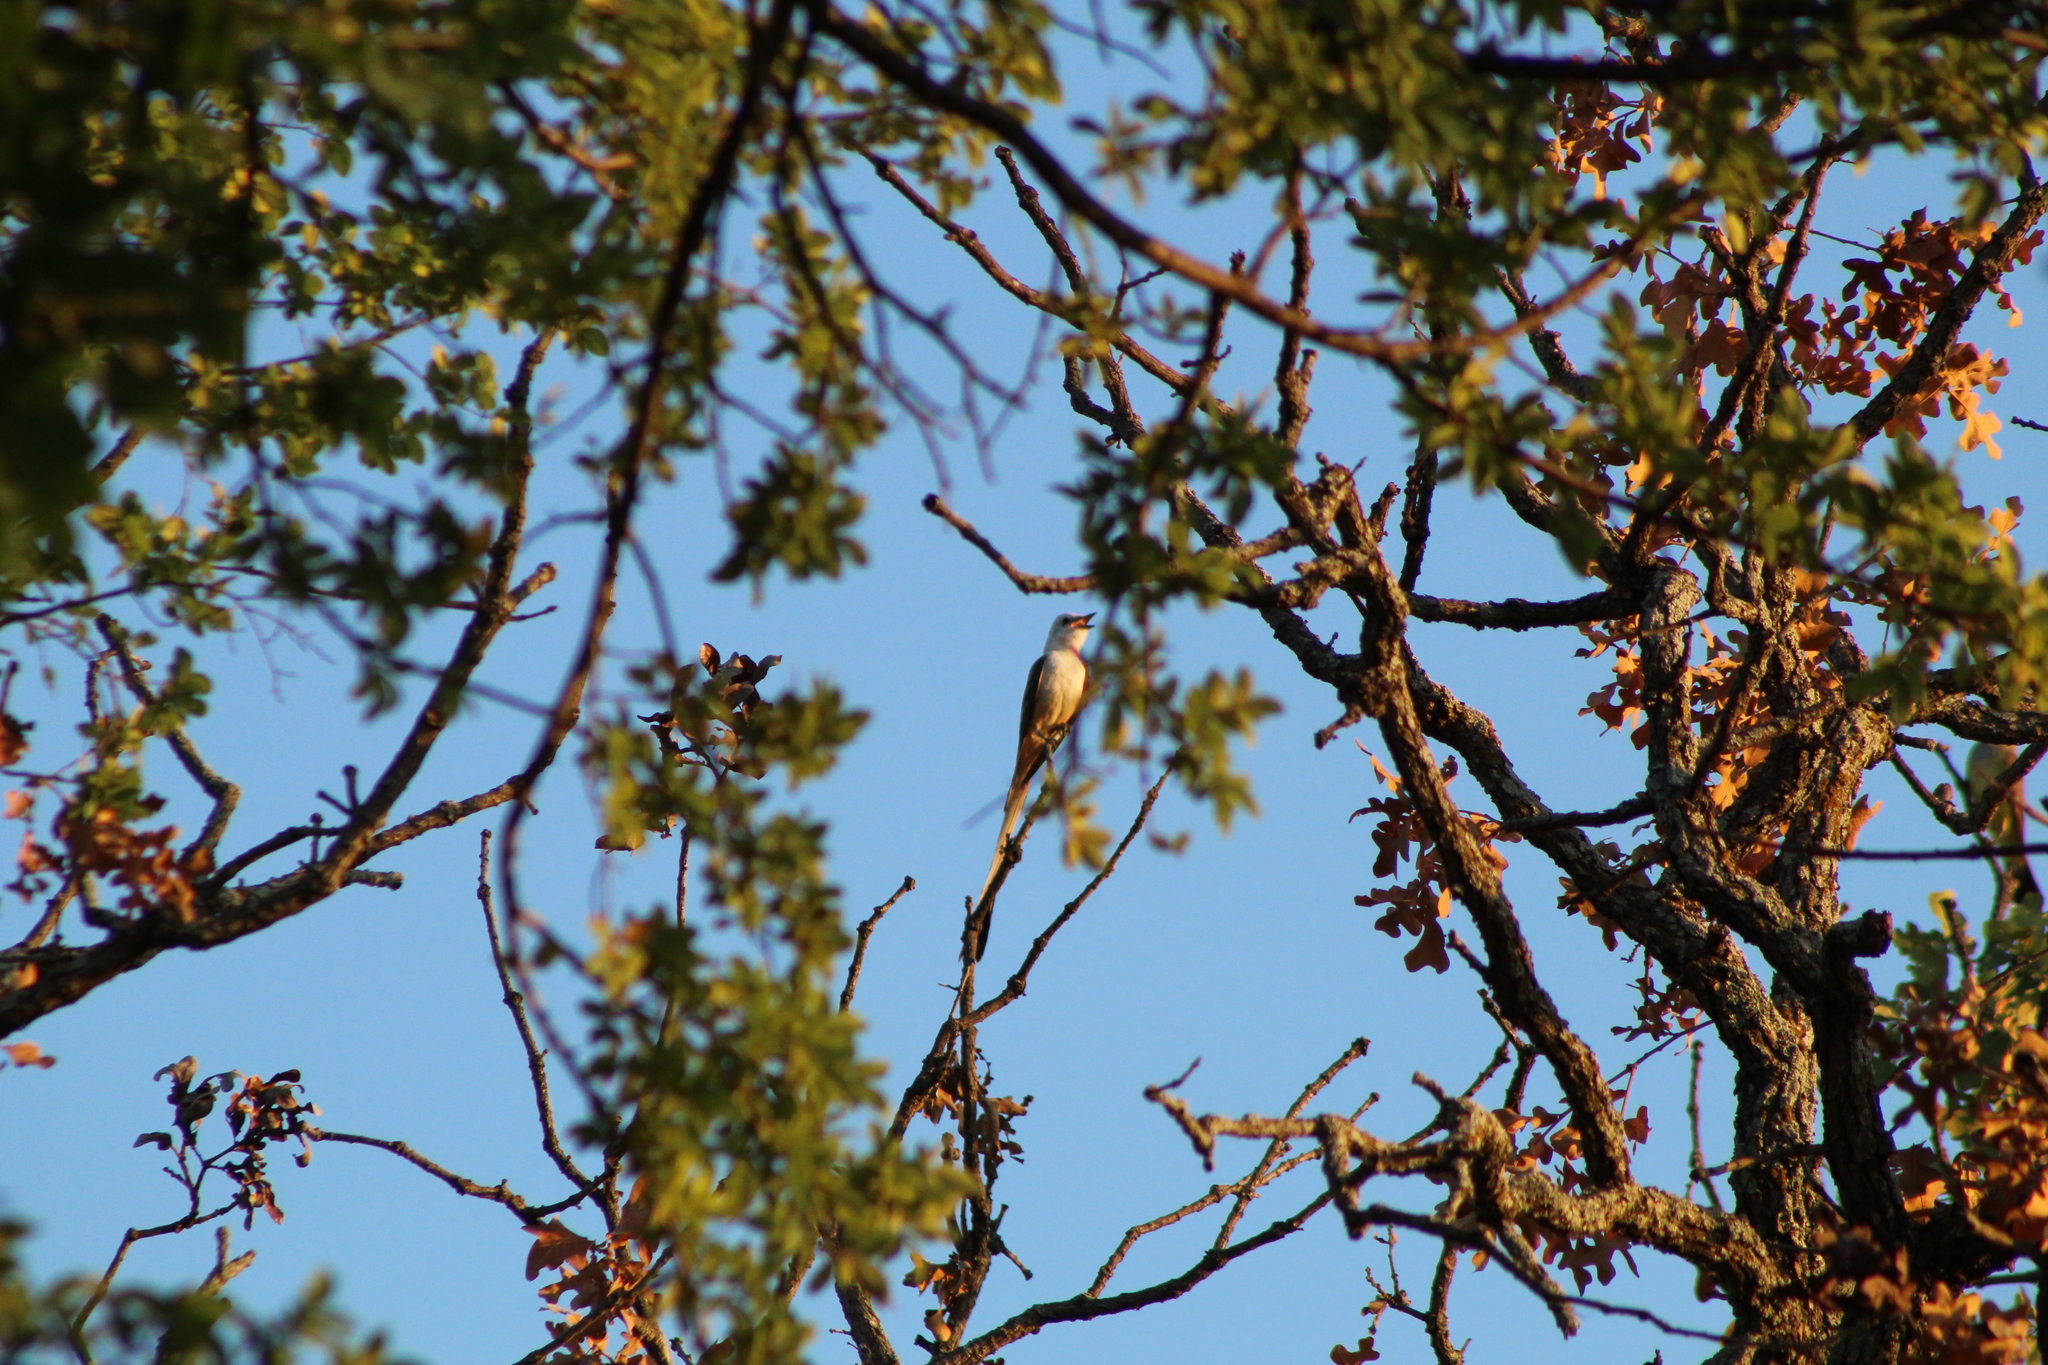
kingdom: Animalia
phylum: Chordata
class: Aves
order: Passeriformes
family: Tyrannidae
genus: Tyrannus
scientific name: Tyrannus forficatus
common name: Scissor-tailed flycatcher
